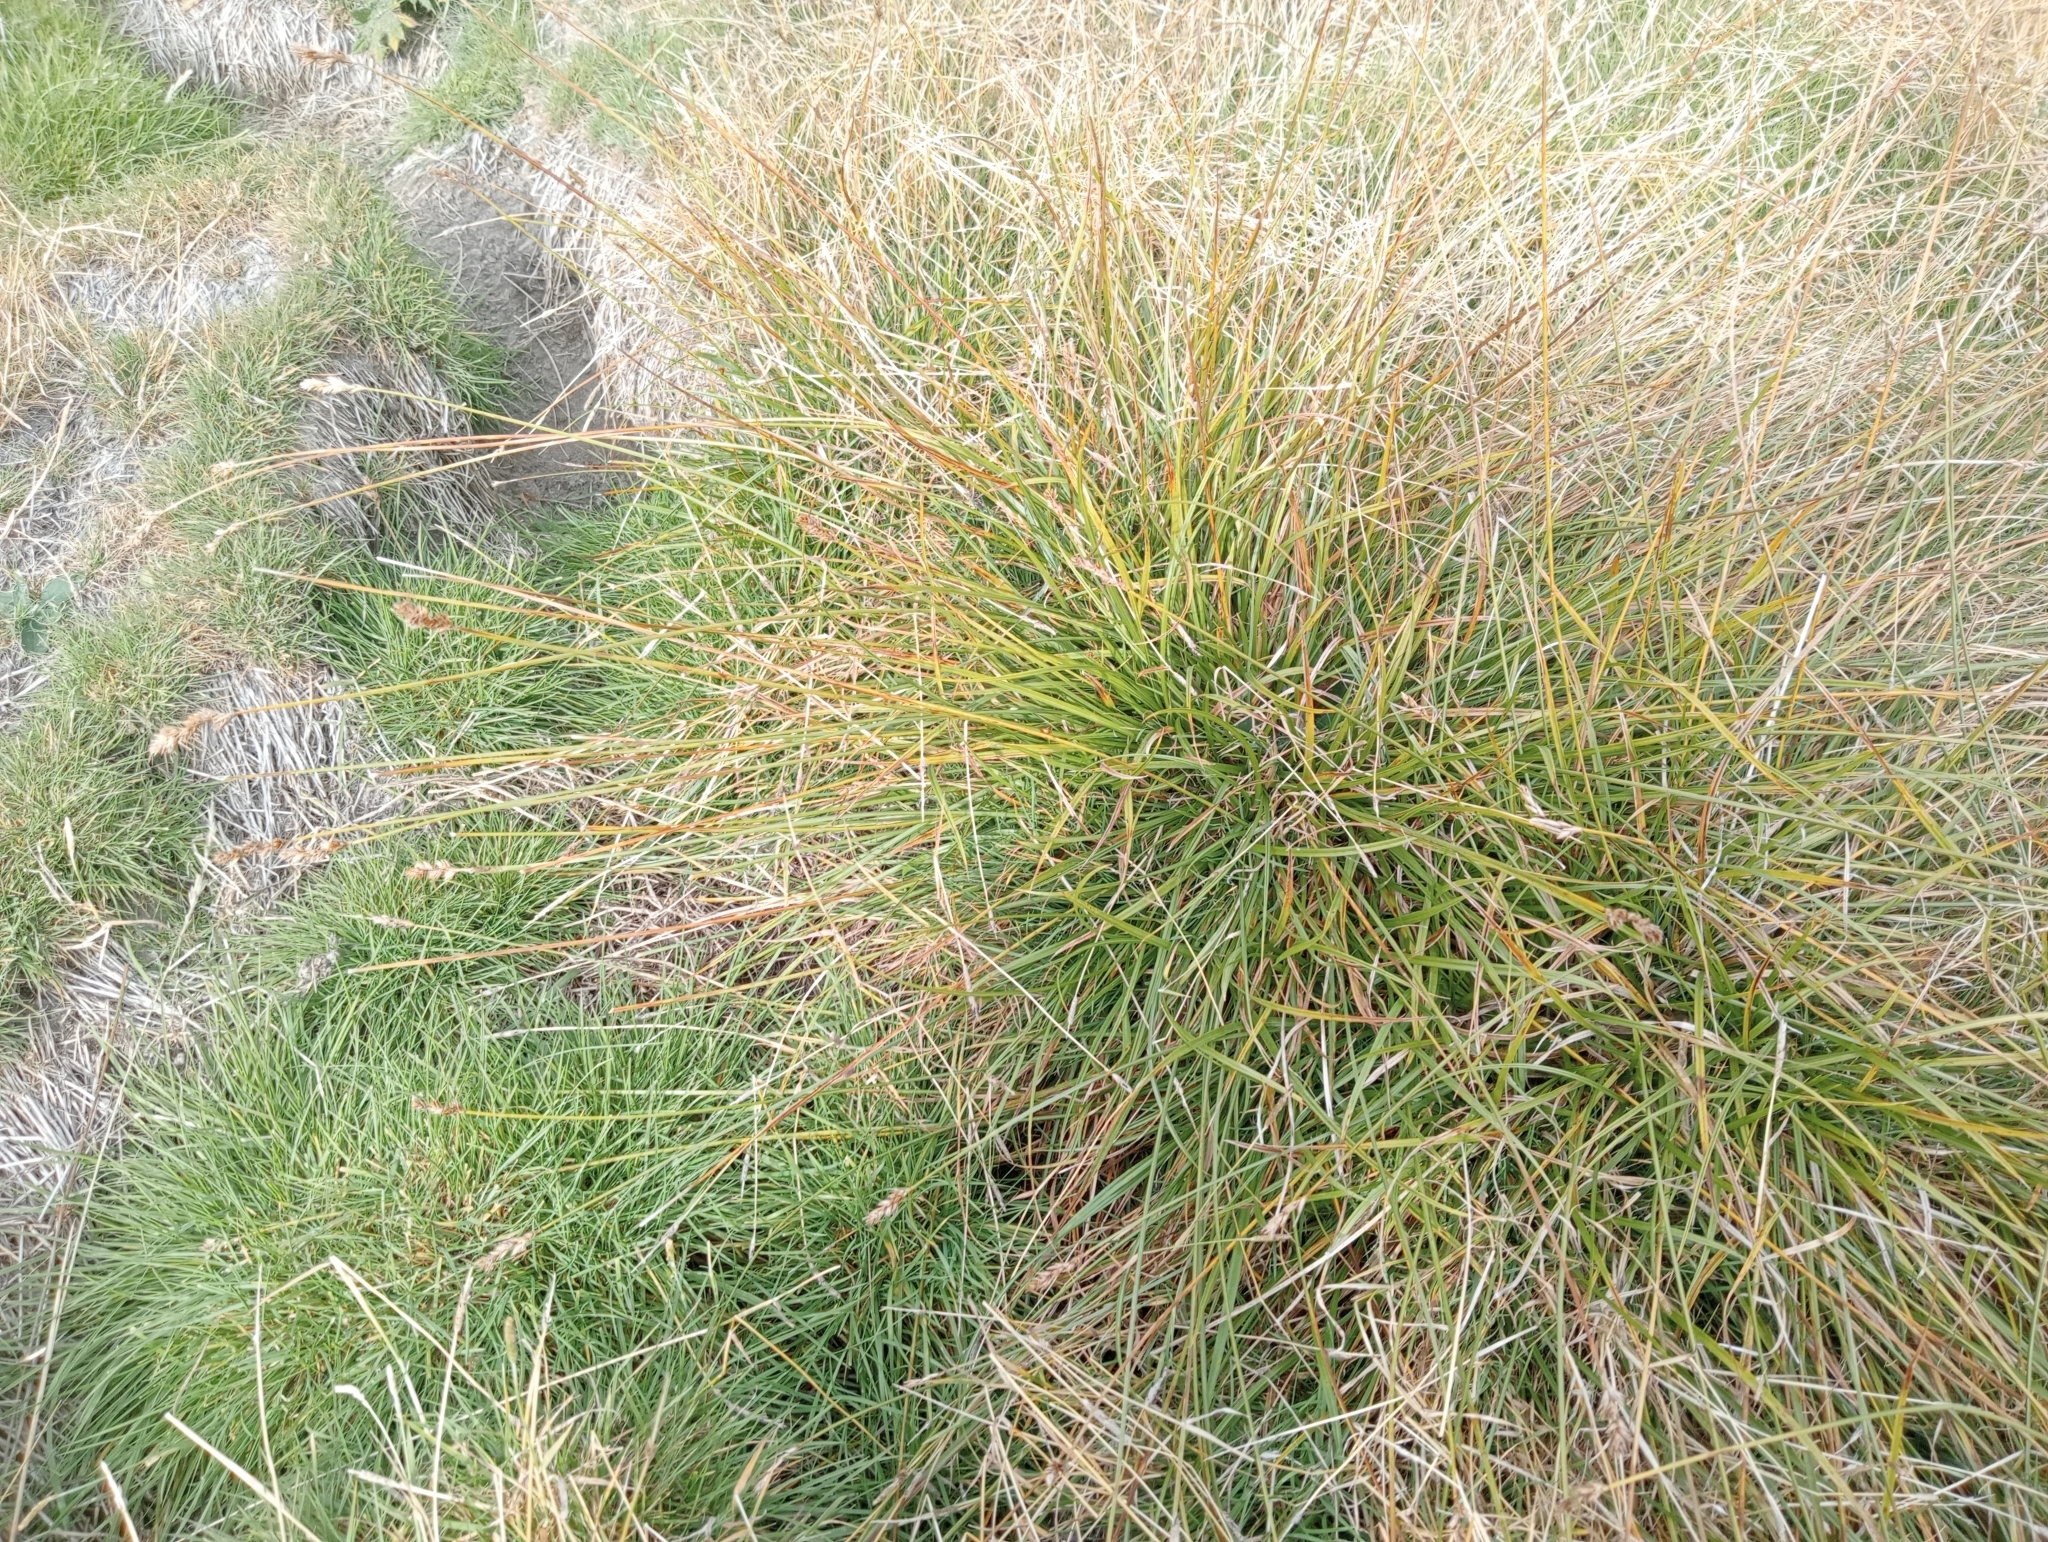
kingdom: Plantae
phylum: Tracheophyta
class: Liliopsida
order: Poales
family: Cyperaceae
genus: Carex
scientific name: Carex leporina
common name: Oval sedge
